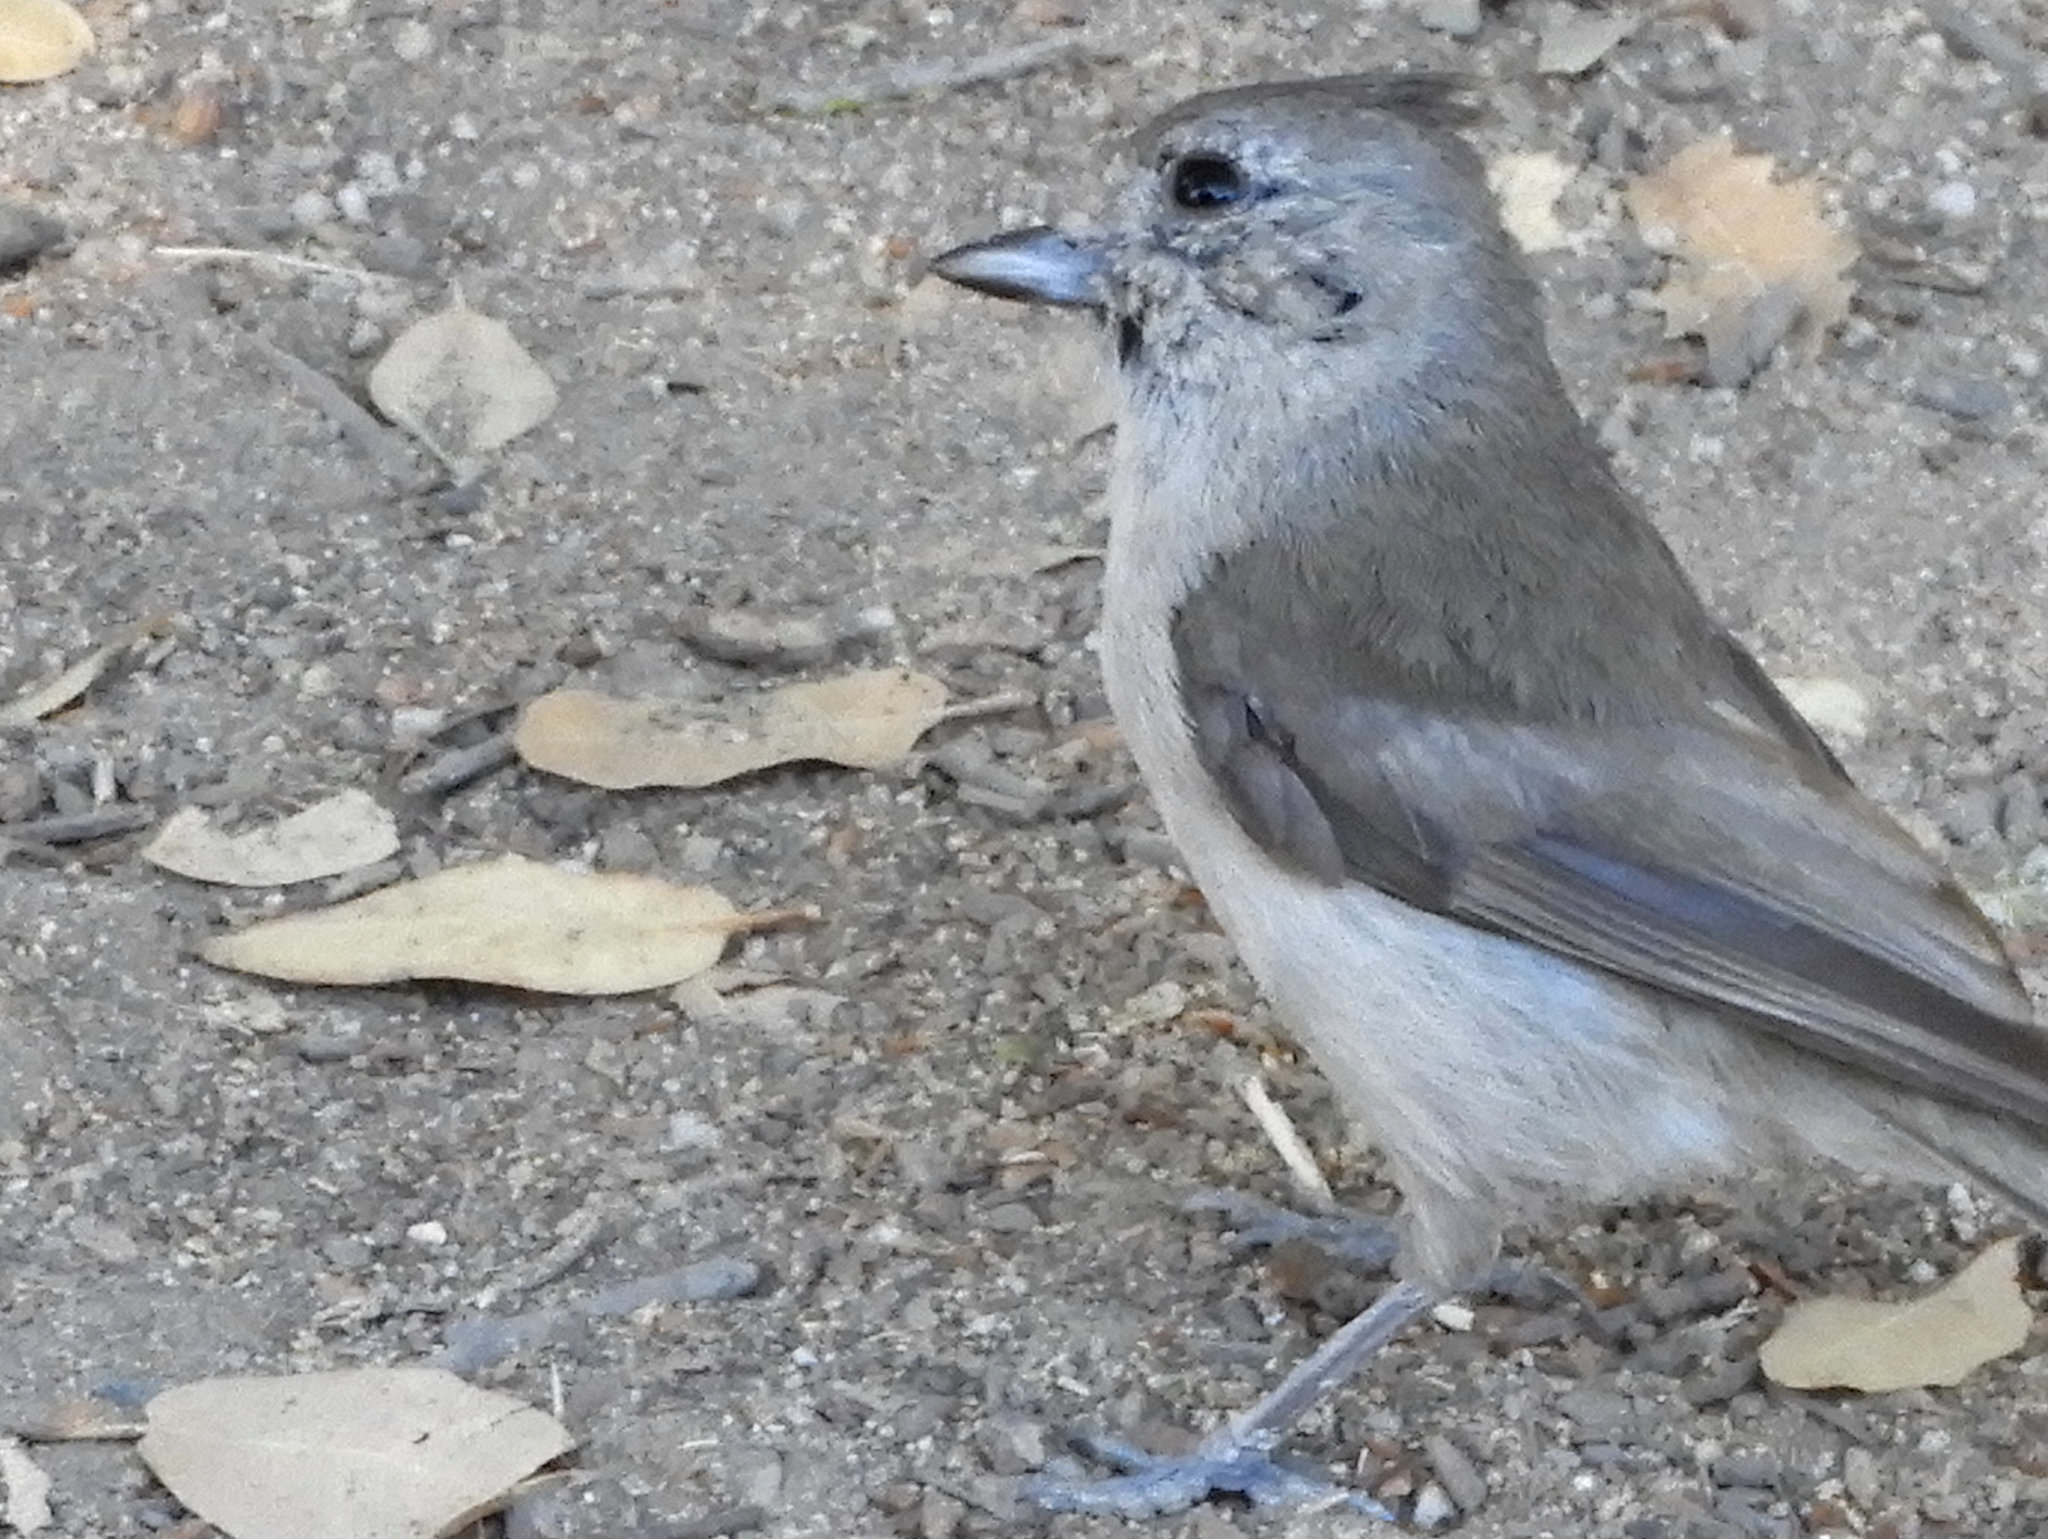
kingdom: Animalia
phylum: Chordata
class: Aves
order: Passeriformes
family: Paridae
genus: Baeolophus
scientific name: Baeolophus inornatus
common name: Oak titmouse
